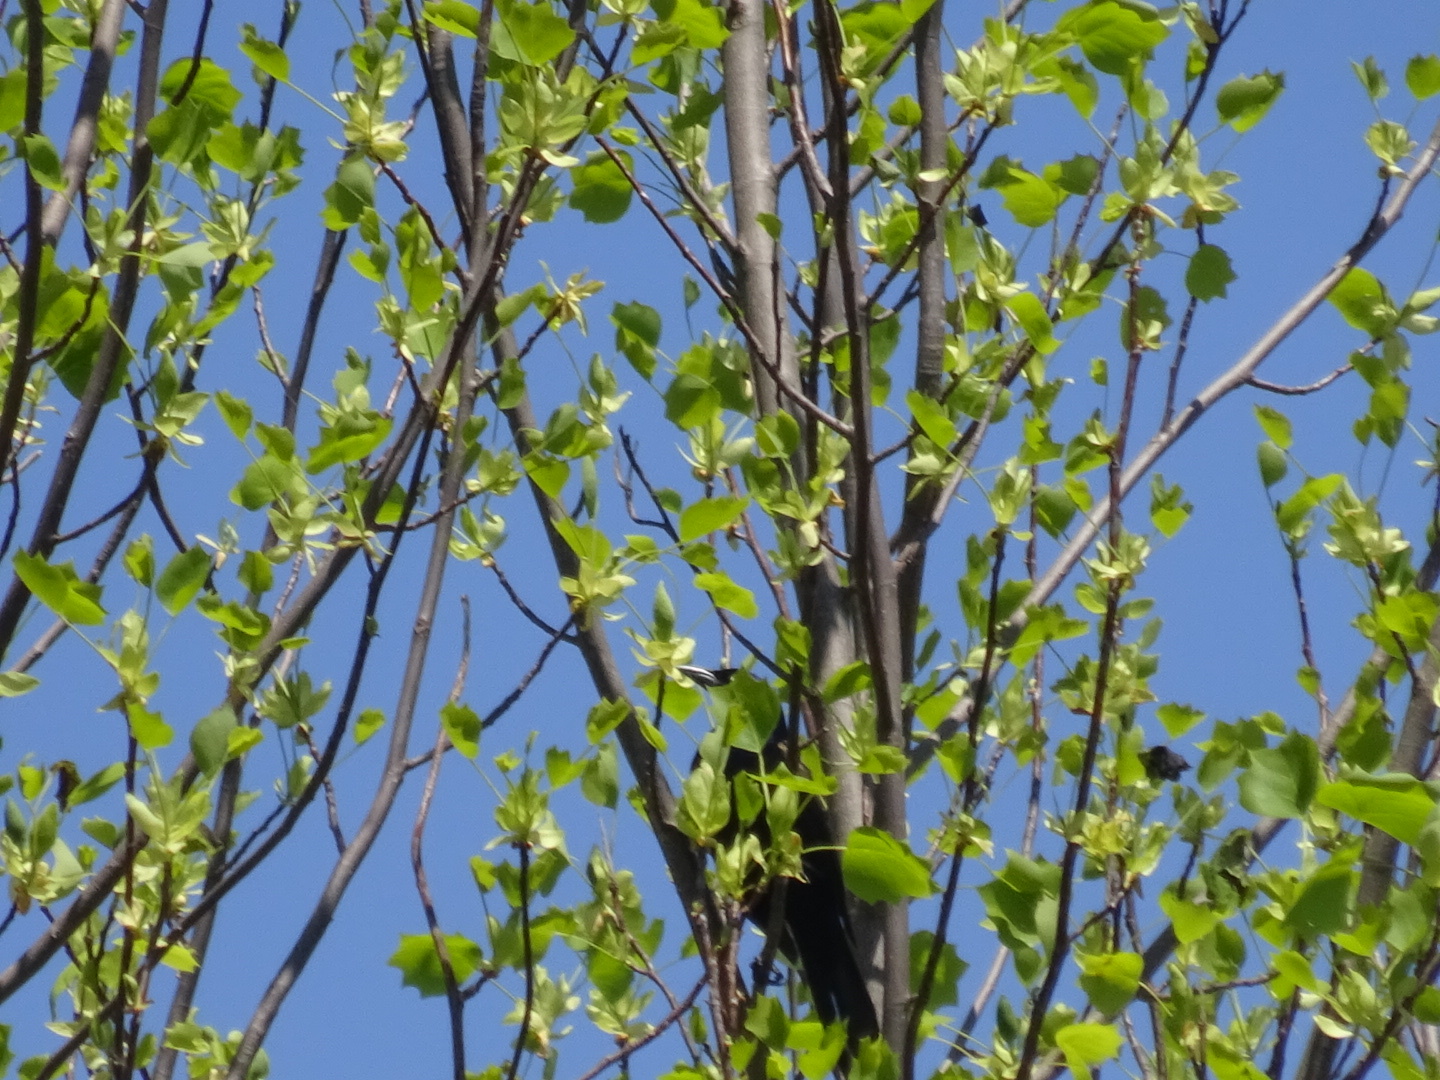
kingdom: Animalia
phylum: Chordata
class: Aves
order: Passeriformes
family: Icteridae
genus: Quiscalus
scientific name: Quiscalus quiscula
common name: Common grackle
